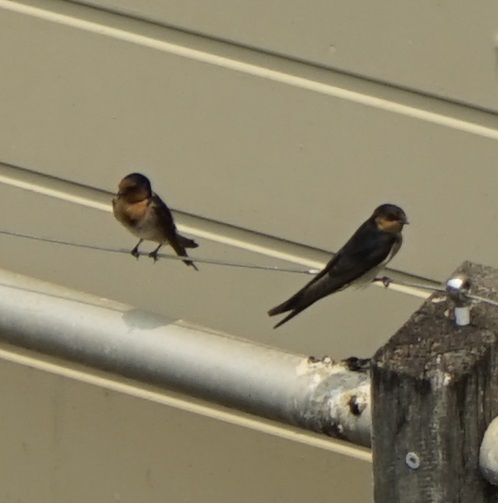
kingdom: Animalia
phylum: Chordata
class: Aves
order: Passeriformes
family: Hirundinidae
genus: Hirundo
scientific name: Hirundo neoxena
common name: Welcome swallow
